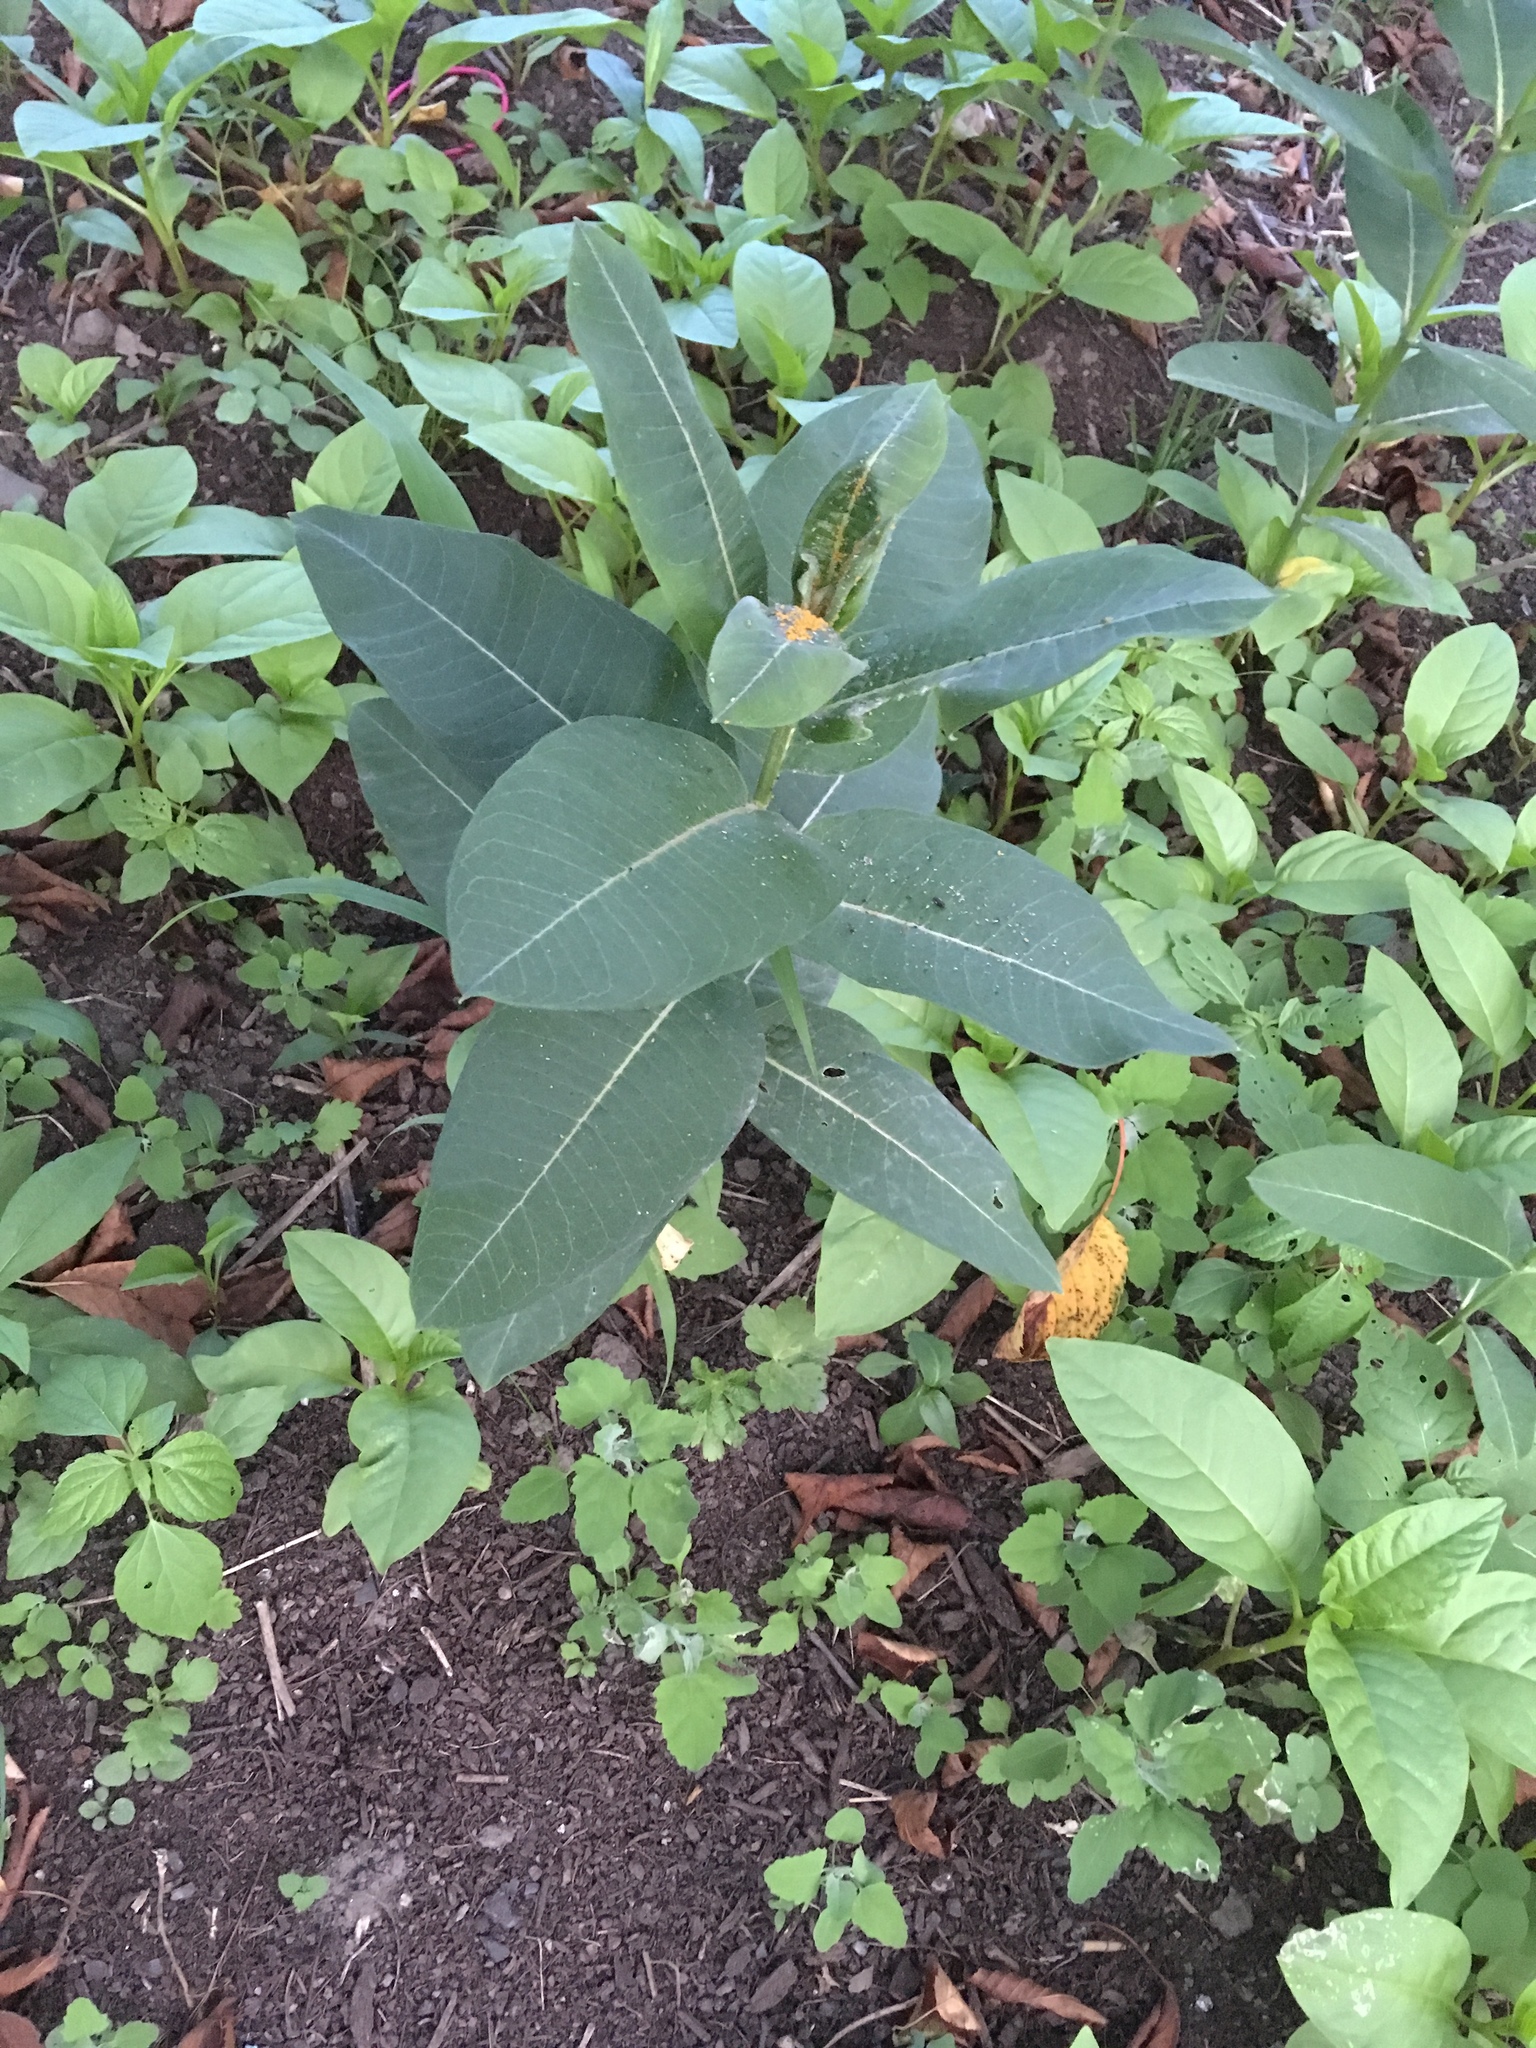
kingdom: Plantae
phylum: Tracheophyta
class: Magnoliopsida
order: Gentianales
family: Apocynaceae
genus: Asclepias
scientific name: Asclepias syriaca
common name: Common milkweed
